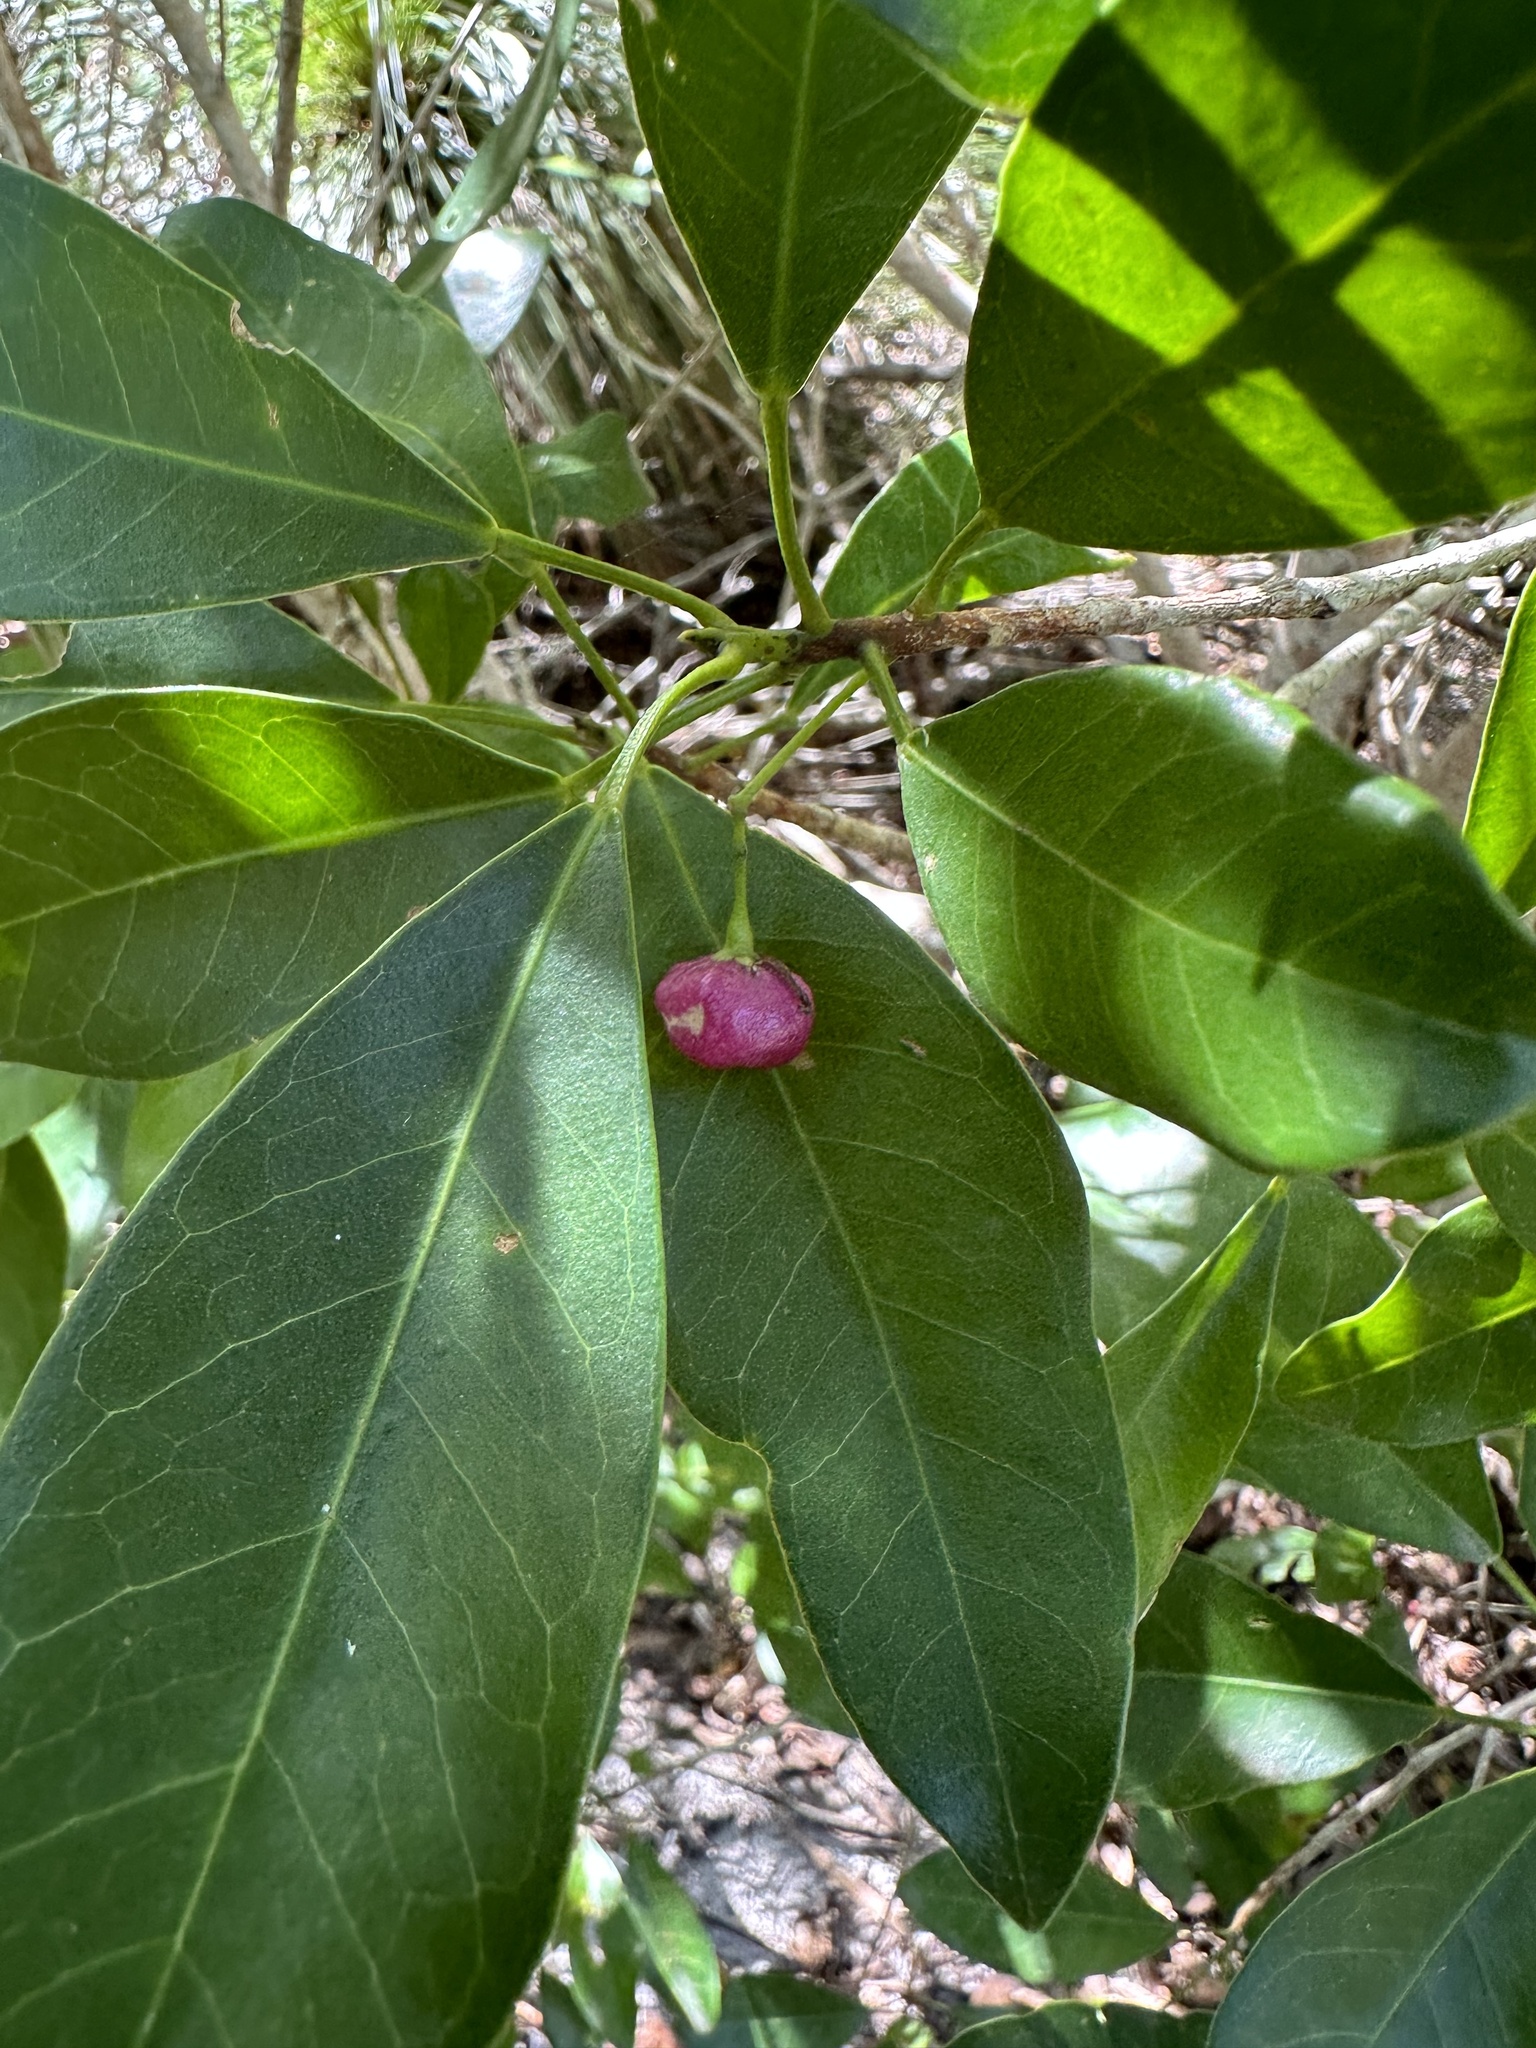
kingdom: Plantae
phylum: Tracheophyta
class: Magnoliopsida
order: Sapindales
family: Rutaceae
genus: Acronychia
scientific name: Acronychia laevis
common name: Hard aspen
